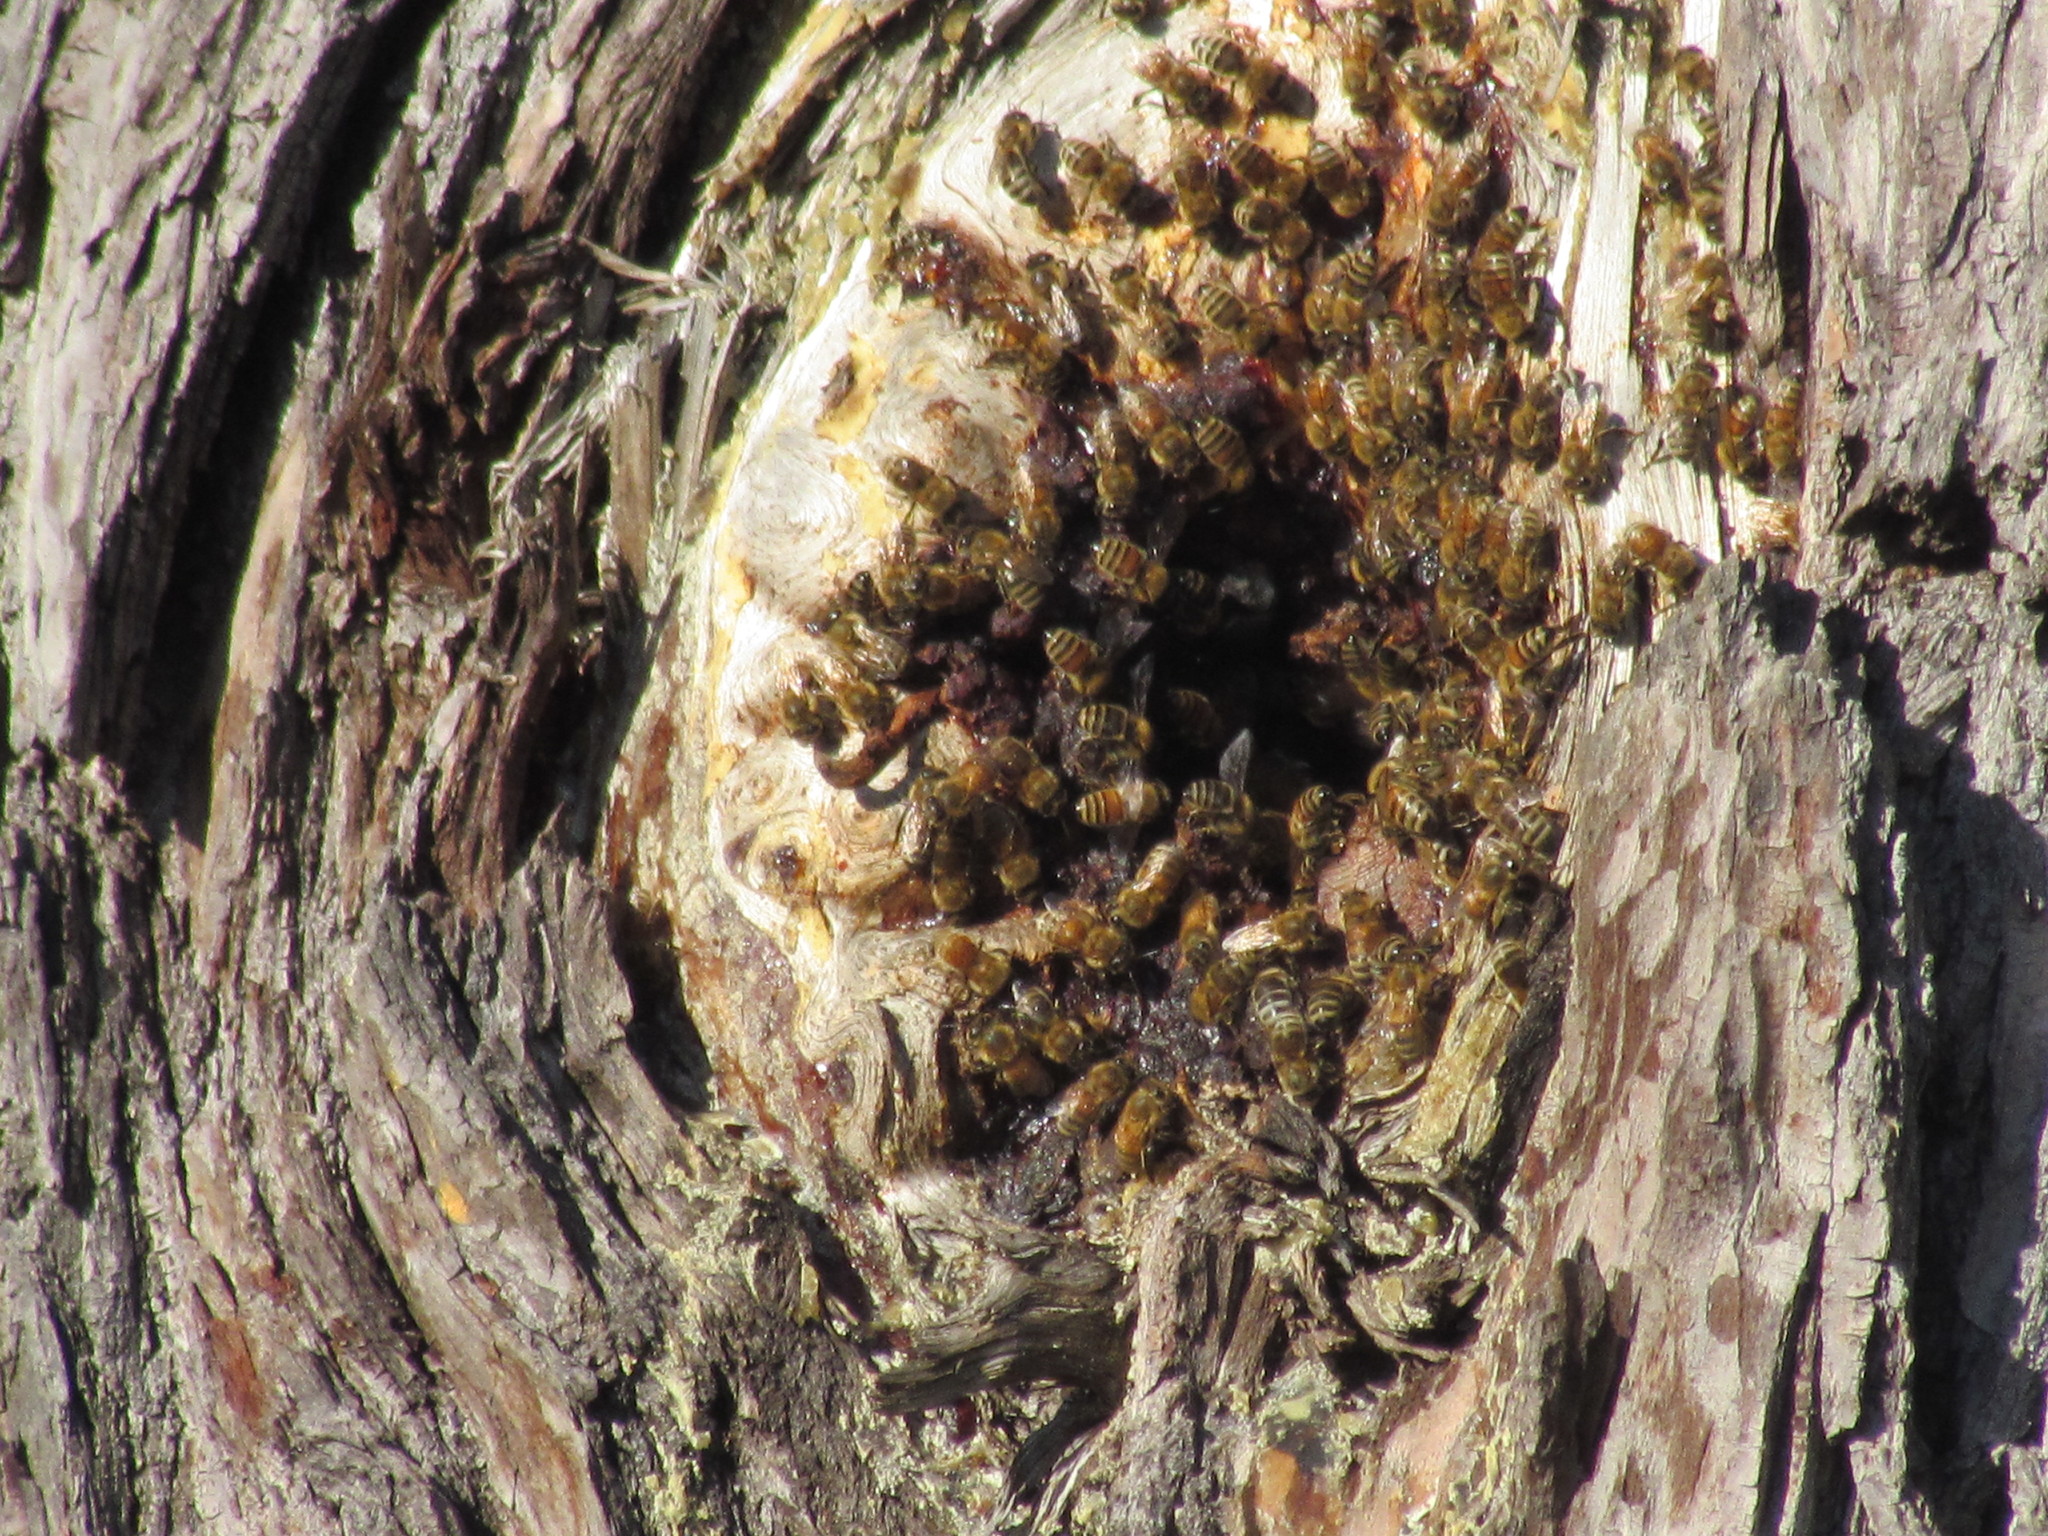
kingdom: Animalia
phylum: Arthropoda
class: Insecta
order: Hymenoptera
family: Apidae
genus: Apis
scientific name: Apis mellifera
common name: Honey bee
